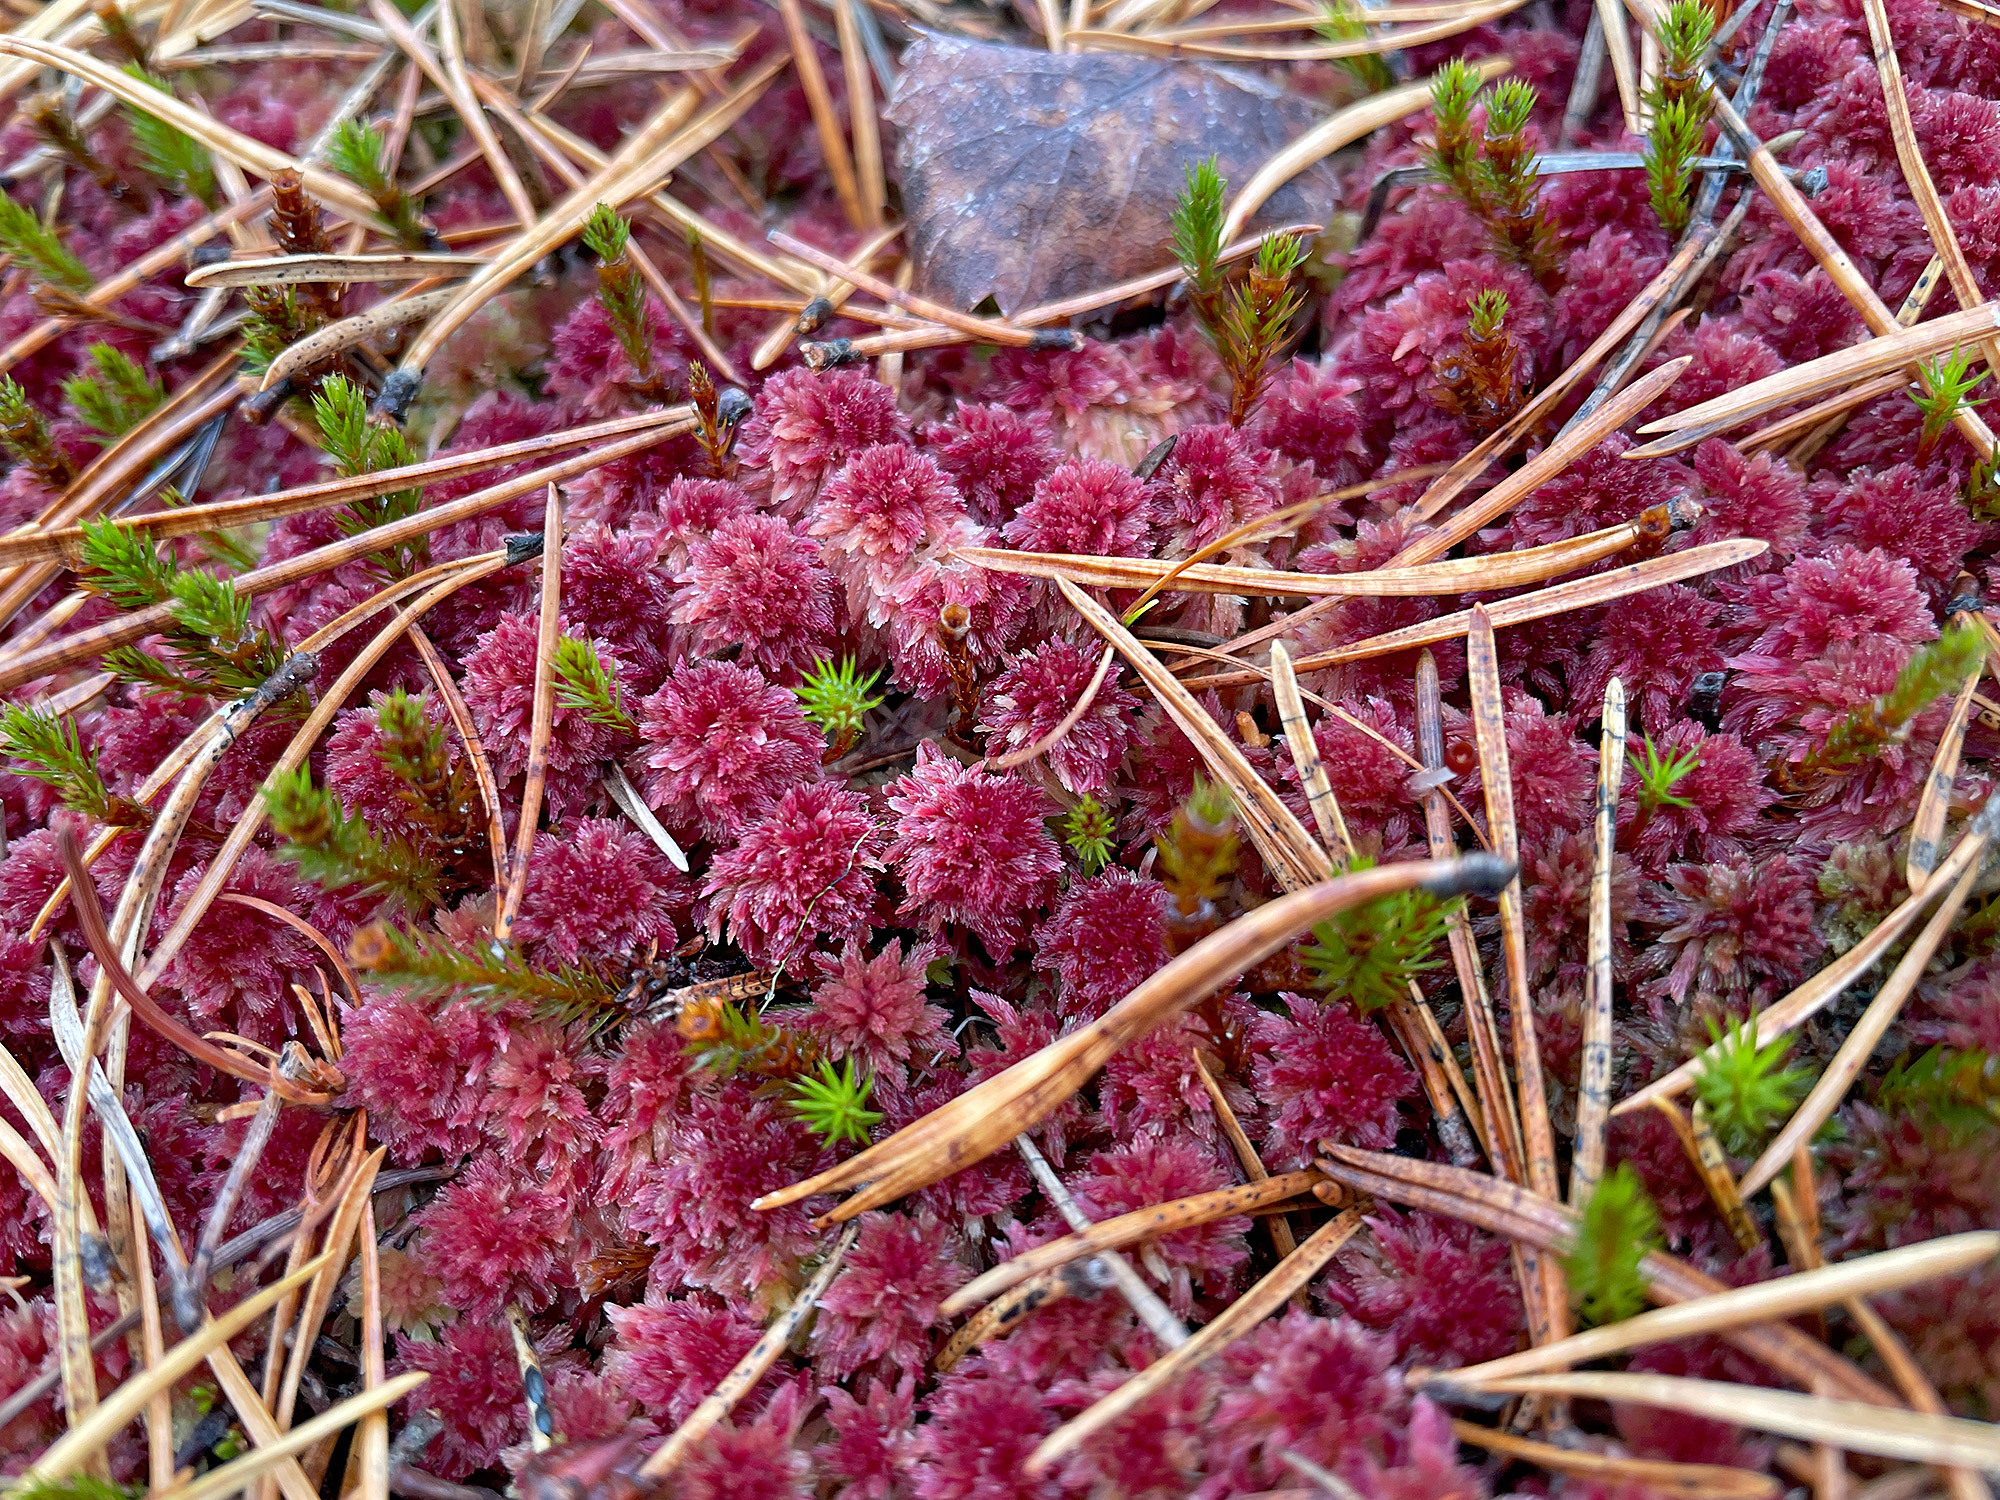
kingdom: Plantae
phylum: Bryophyta
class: Sphagnopsida
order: Sphagnales
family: Sphagnaceae
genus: Sphagnum
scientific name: Sphagnum capillifolium
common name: Small red peat moss
